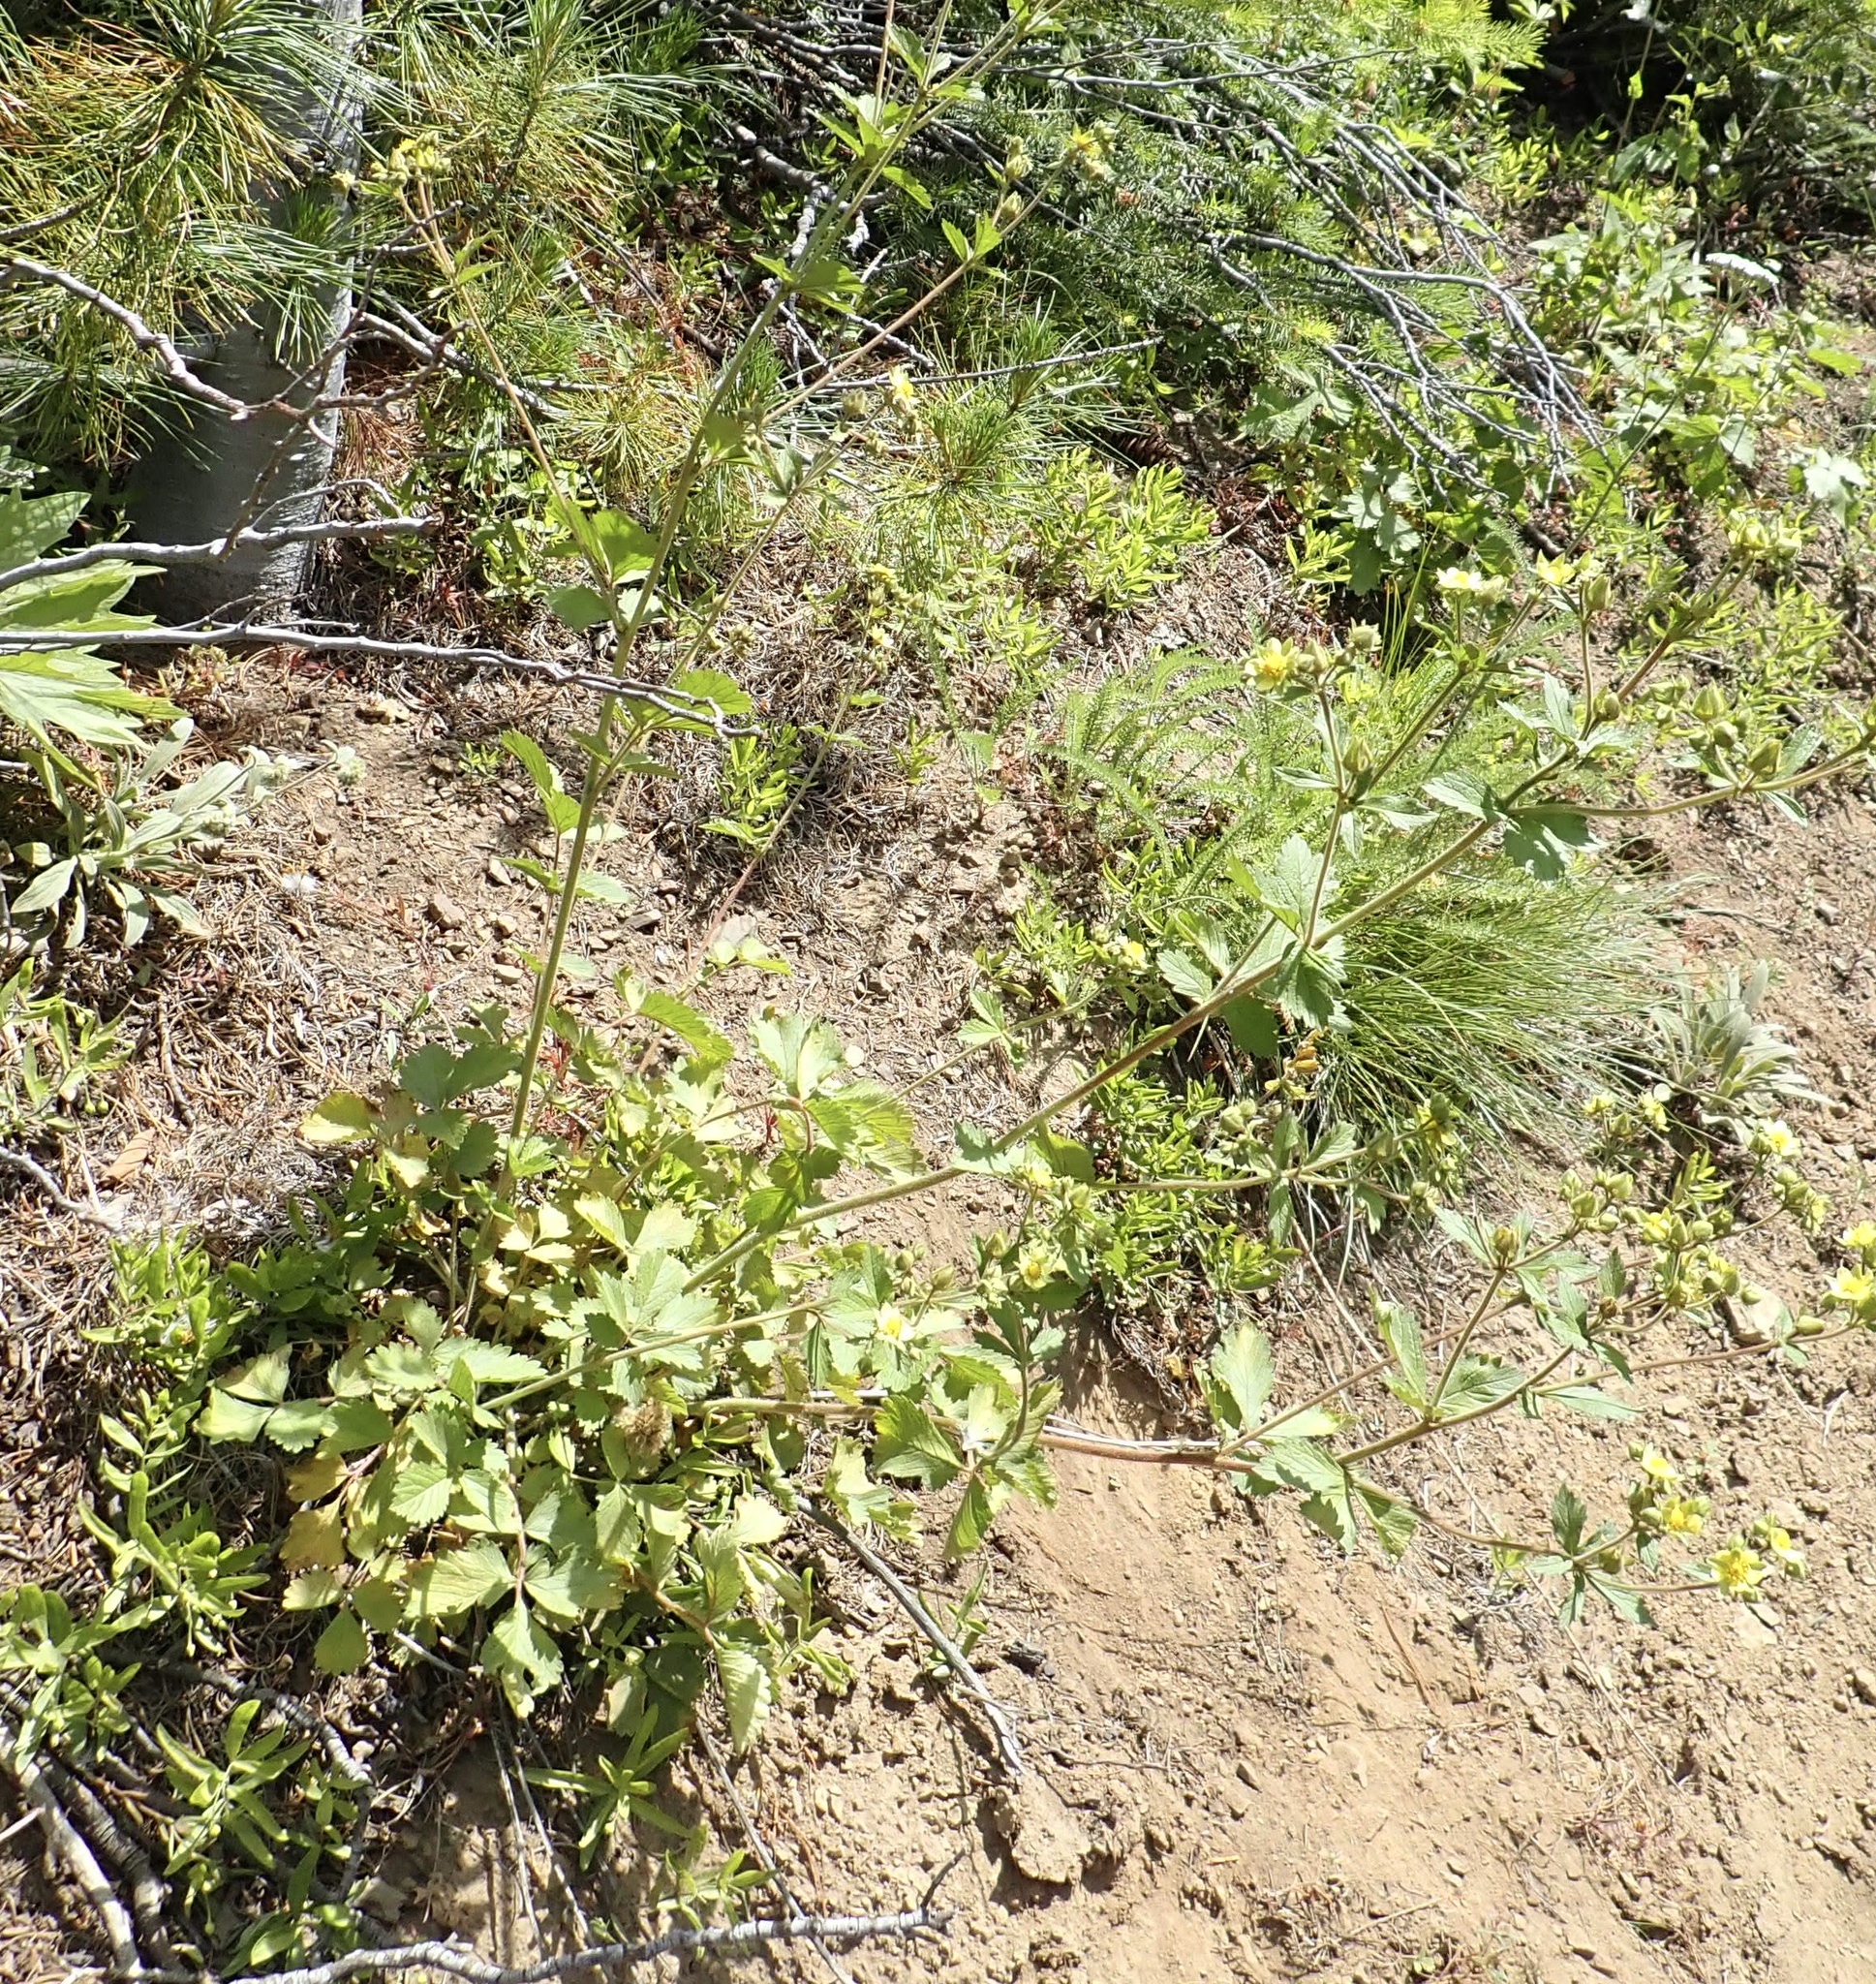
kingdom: Plantae
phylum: Tracheophyta
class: Magnoliopsida
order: Rosales
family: Rosaceae
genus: Drymocallis
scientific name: Drymocallis glandulosa
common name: Sticky cinquefoil
